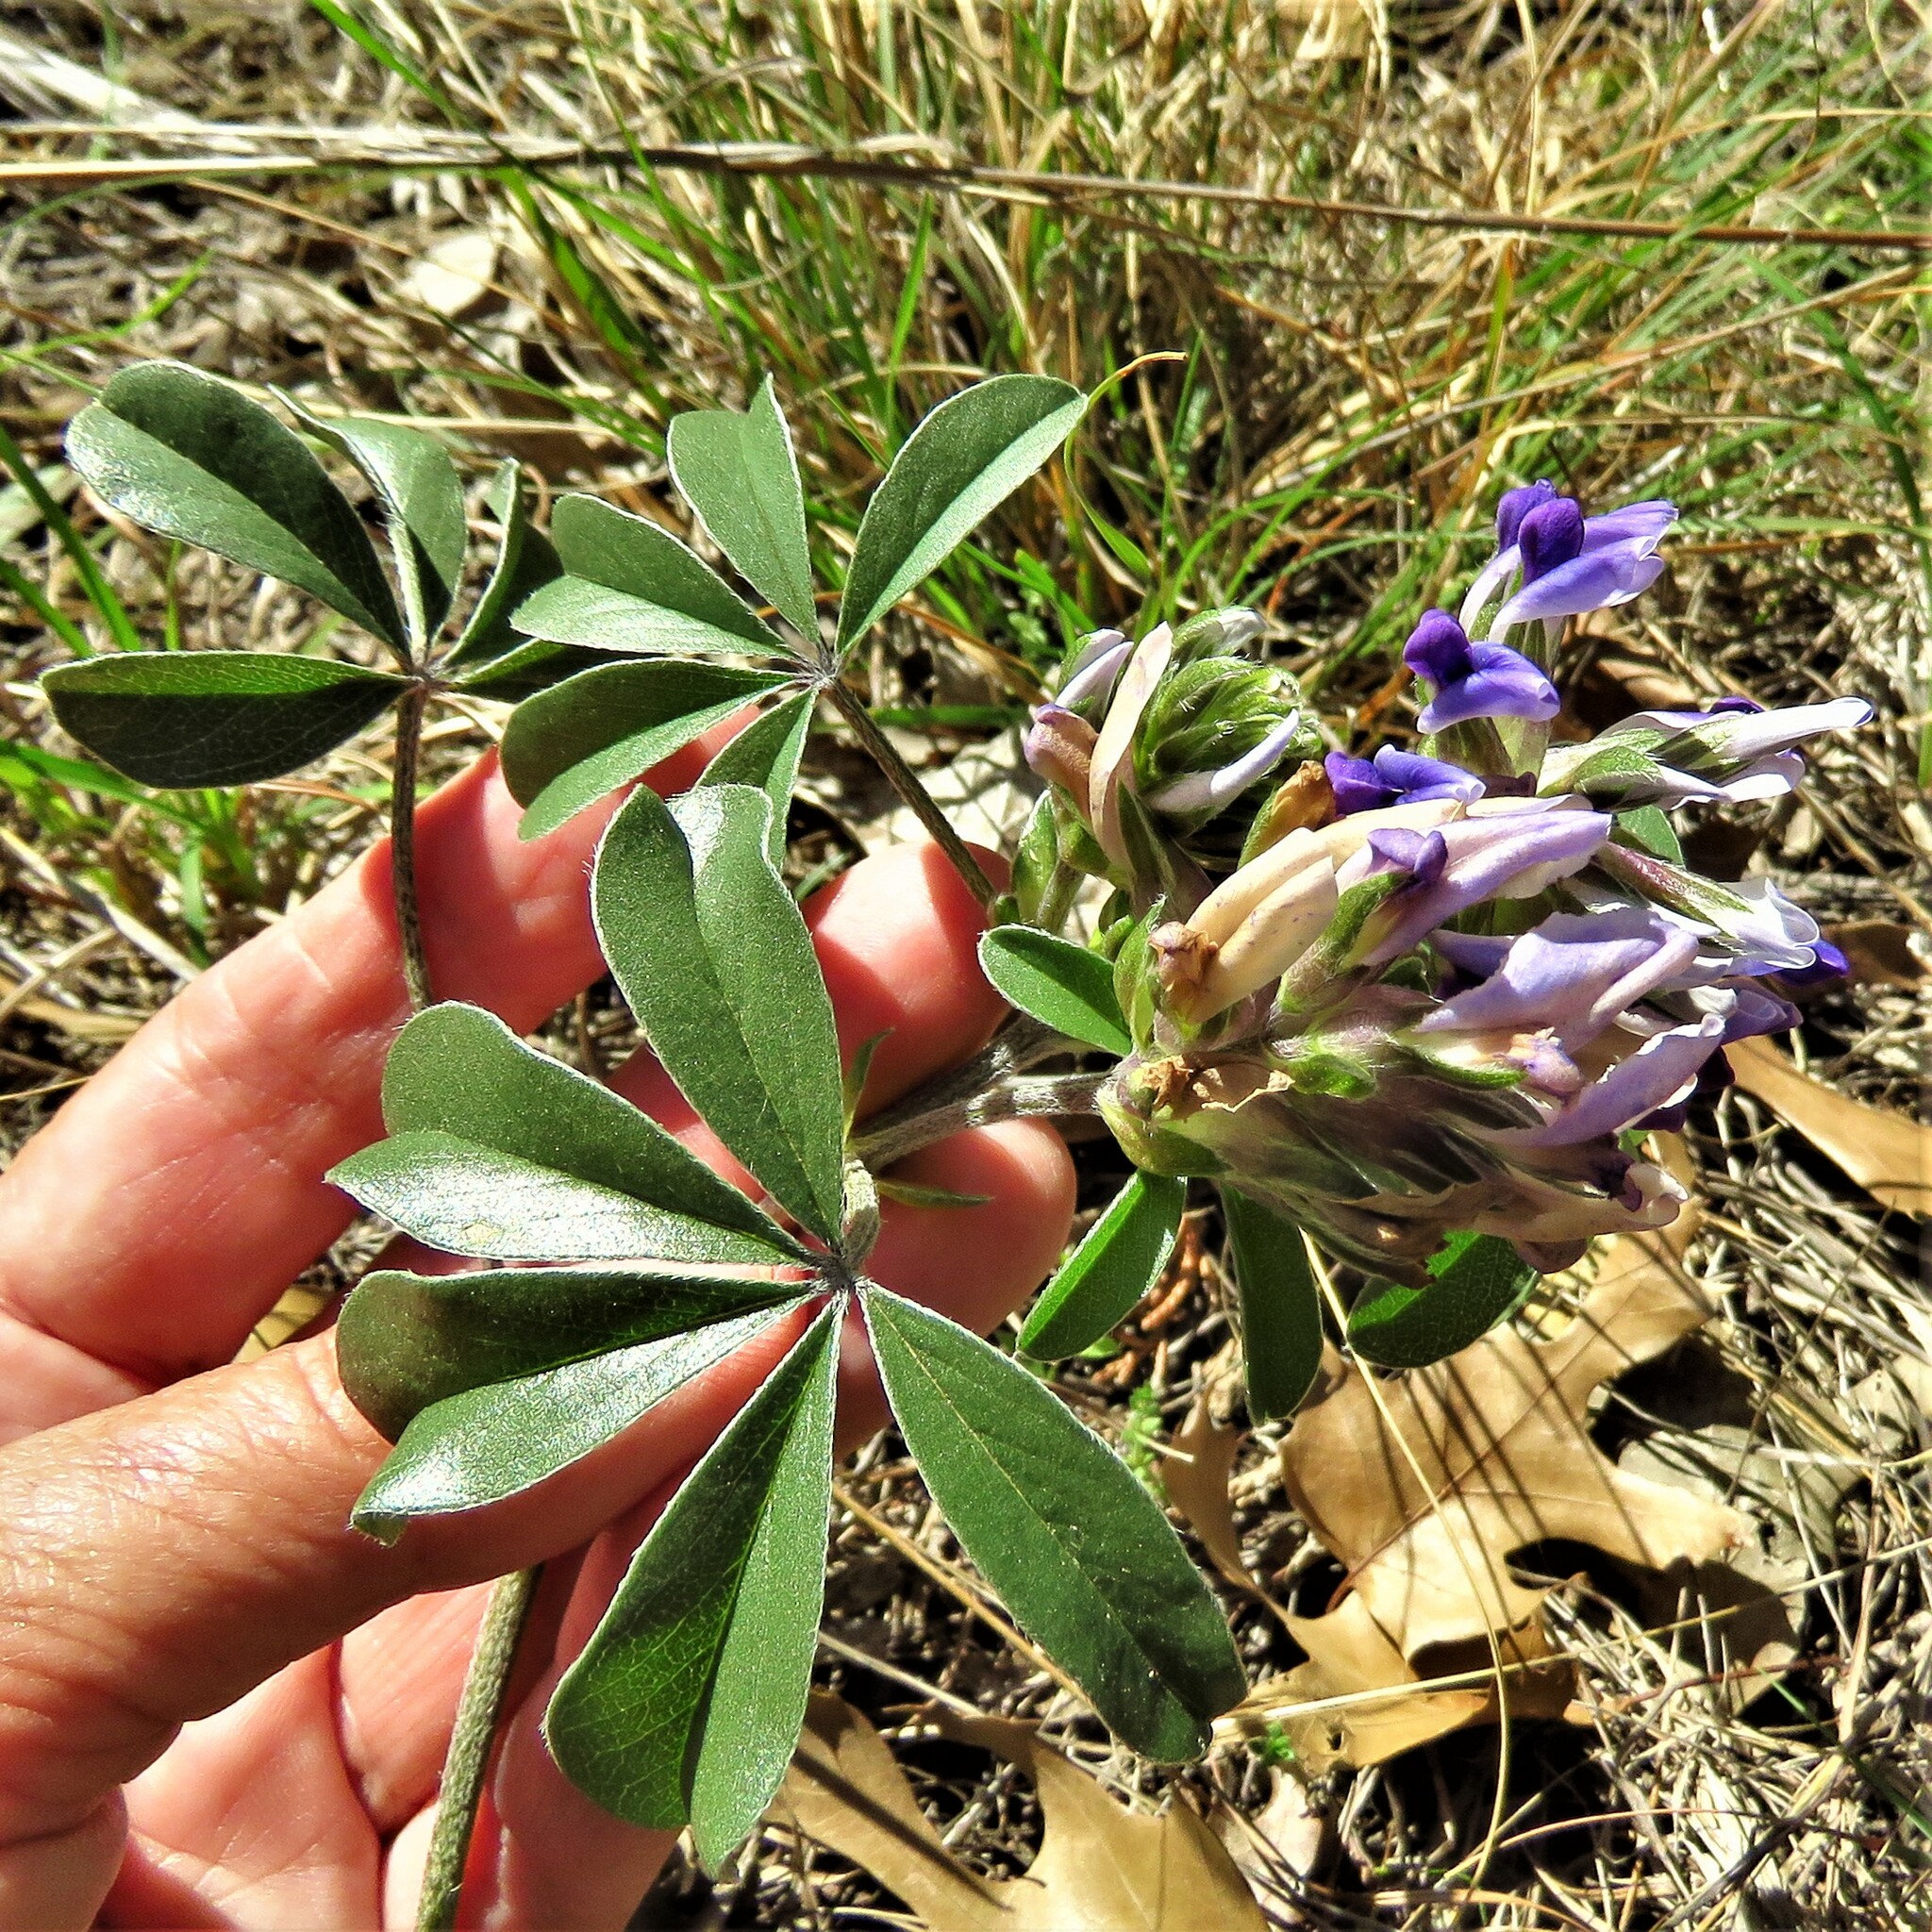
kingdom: Plantae
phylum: Tracheophyta
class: Magnoliopsida
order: Fabales
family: Fabaceae
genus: Pediomelum
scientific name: Pediomelum latestipulatum
